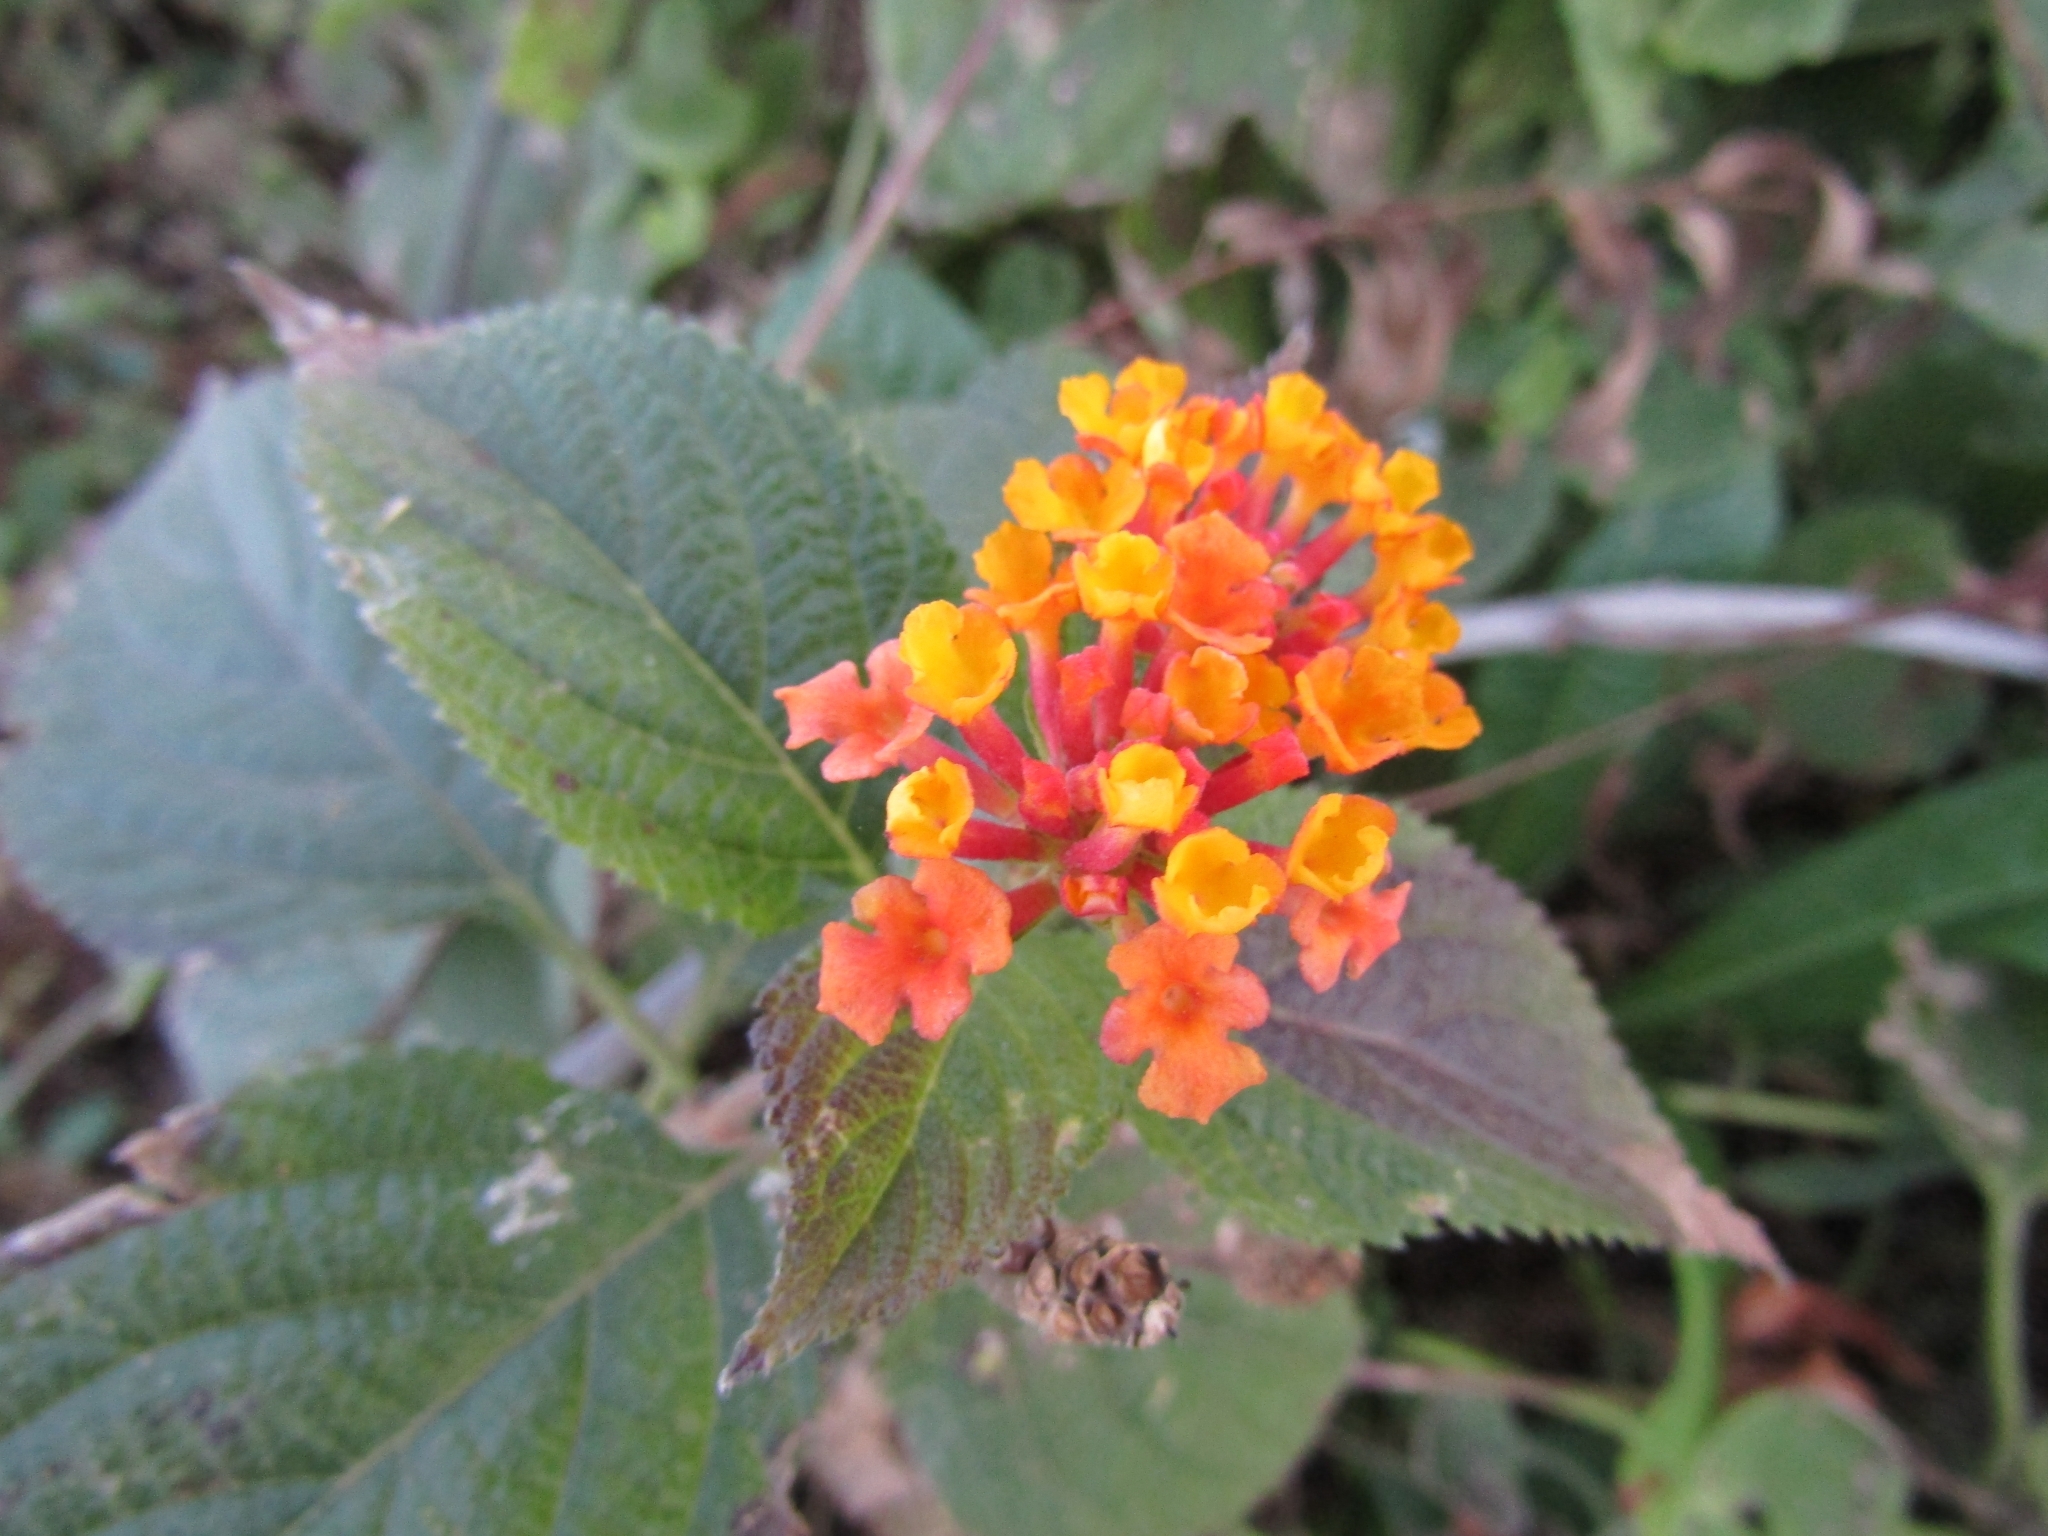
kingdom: Plantae
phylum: Tracheophyta
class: Magnoliopsida
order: Lamiales
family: Verbenaceae
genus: Lantana
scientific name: Lantana camara
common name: Lantana
